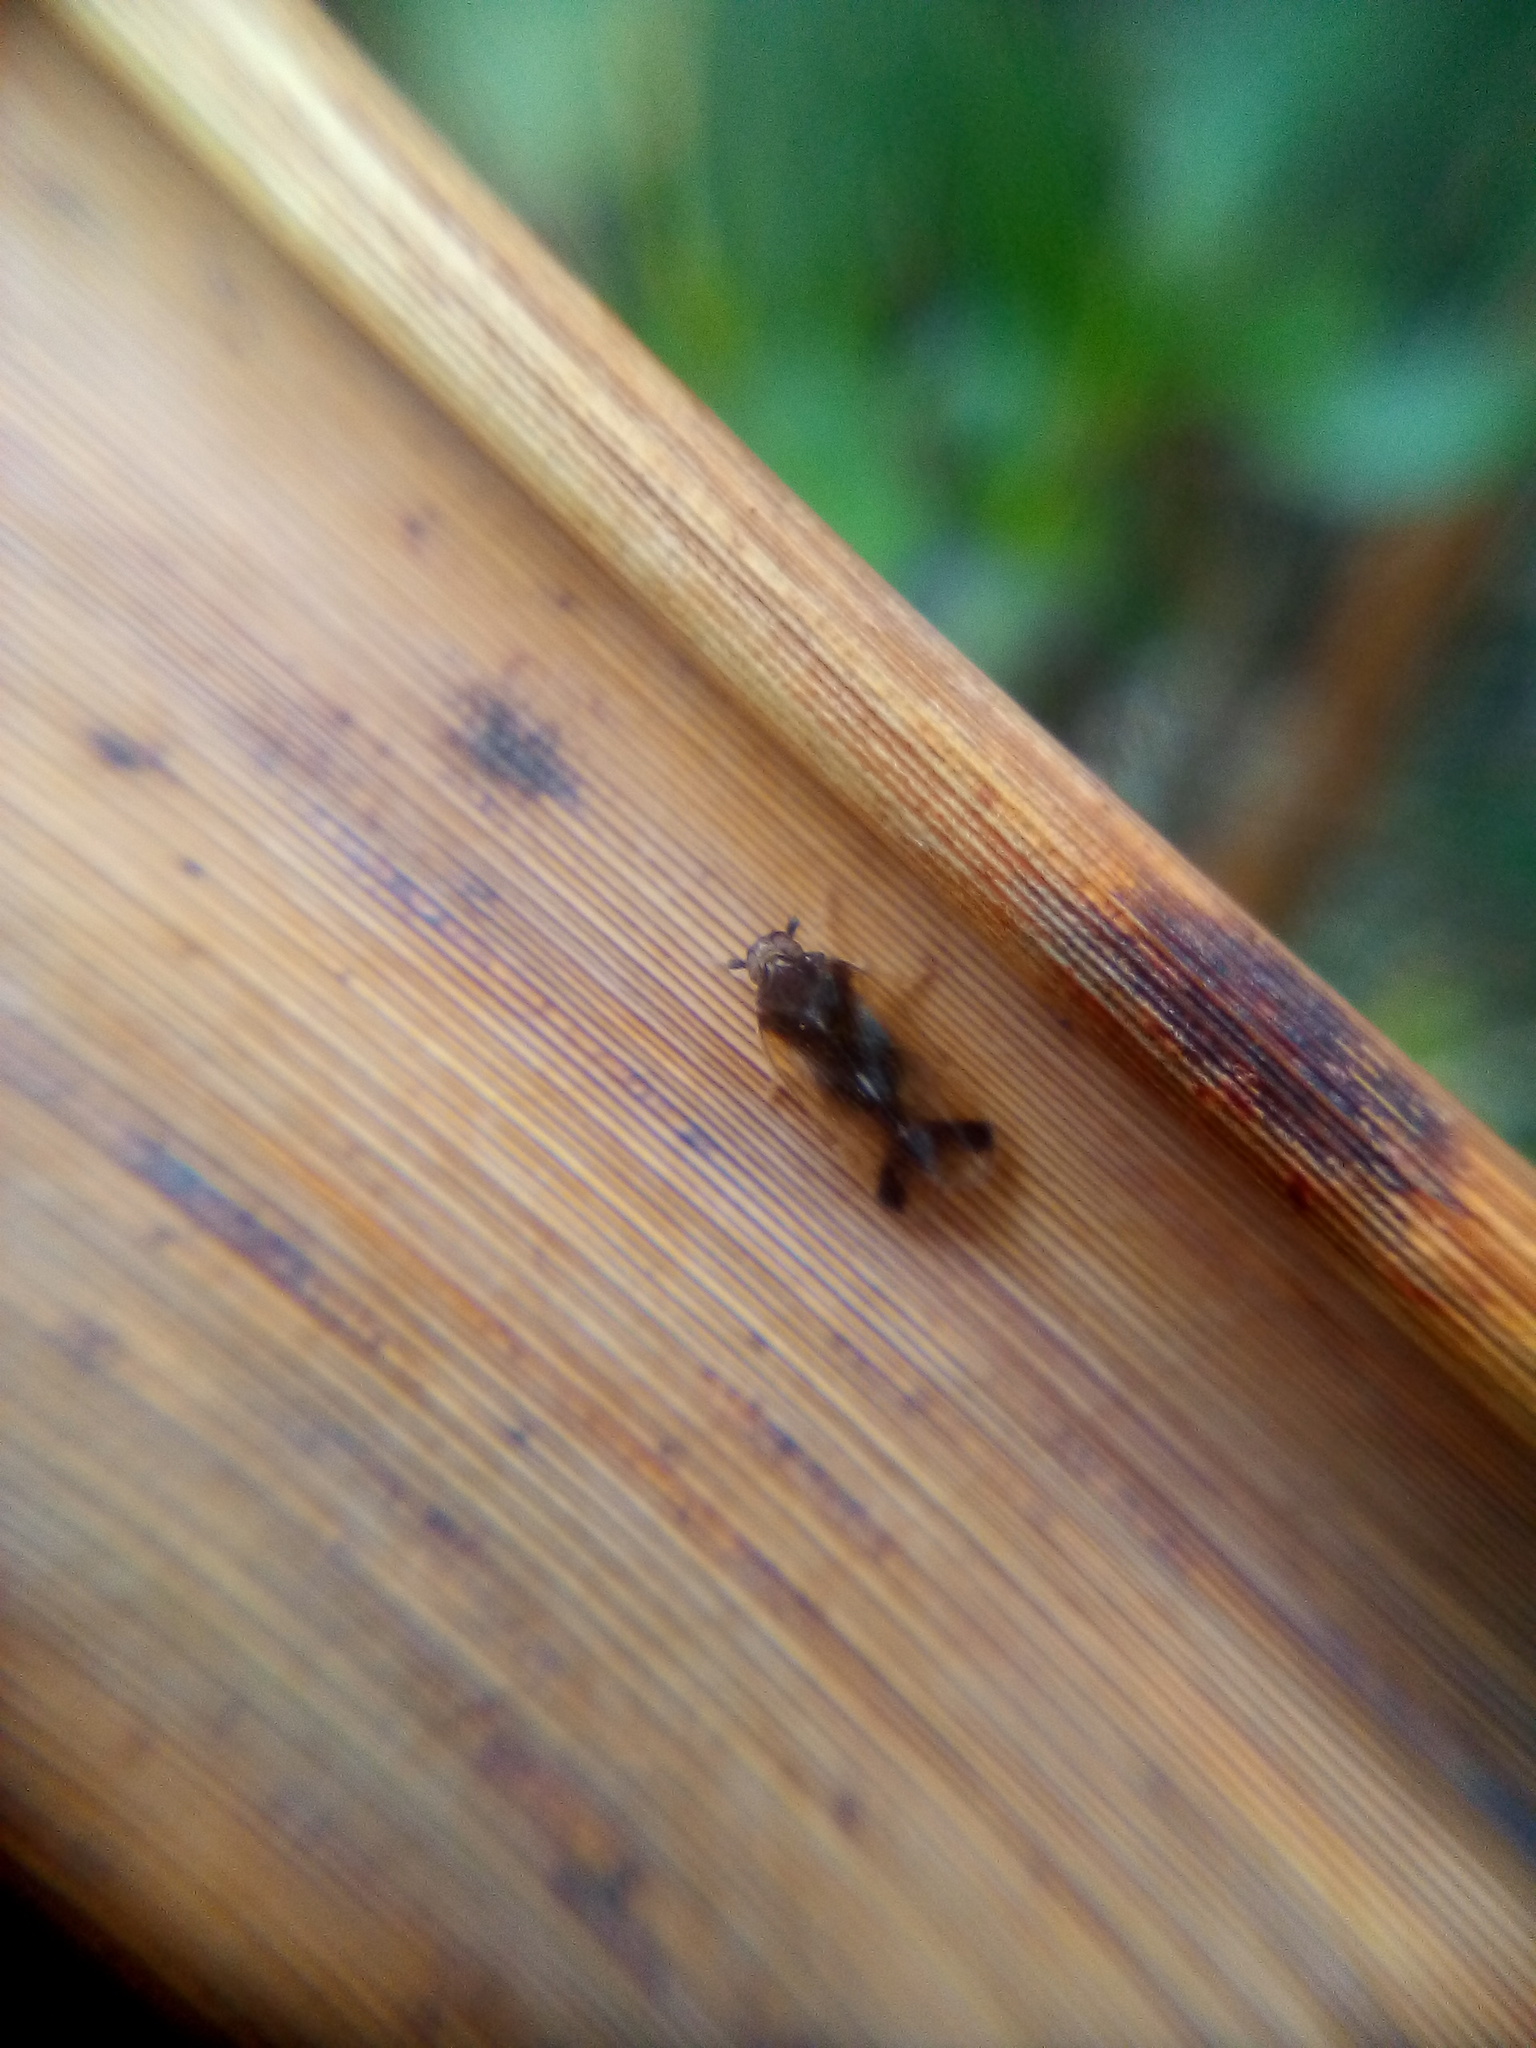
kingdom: Animalia
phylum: Arthropoda
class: Insecta
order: Hemiptera
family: Cixiidae
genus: Tiriteana
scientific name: Tiriteana clarkei
